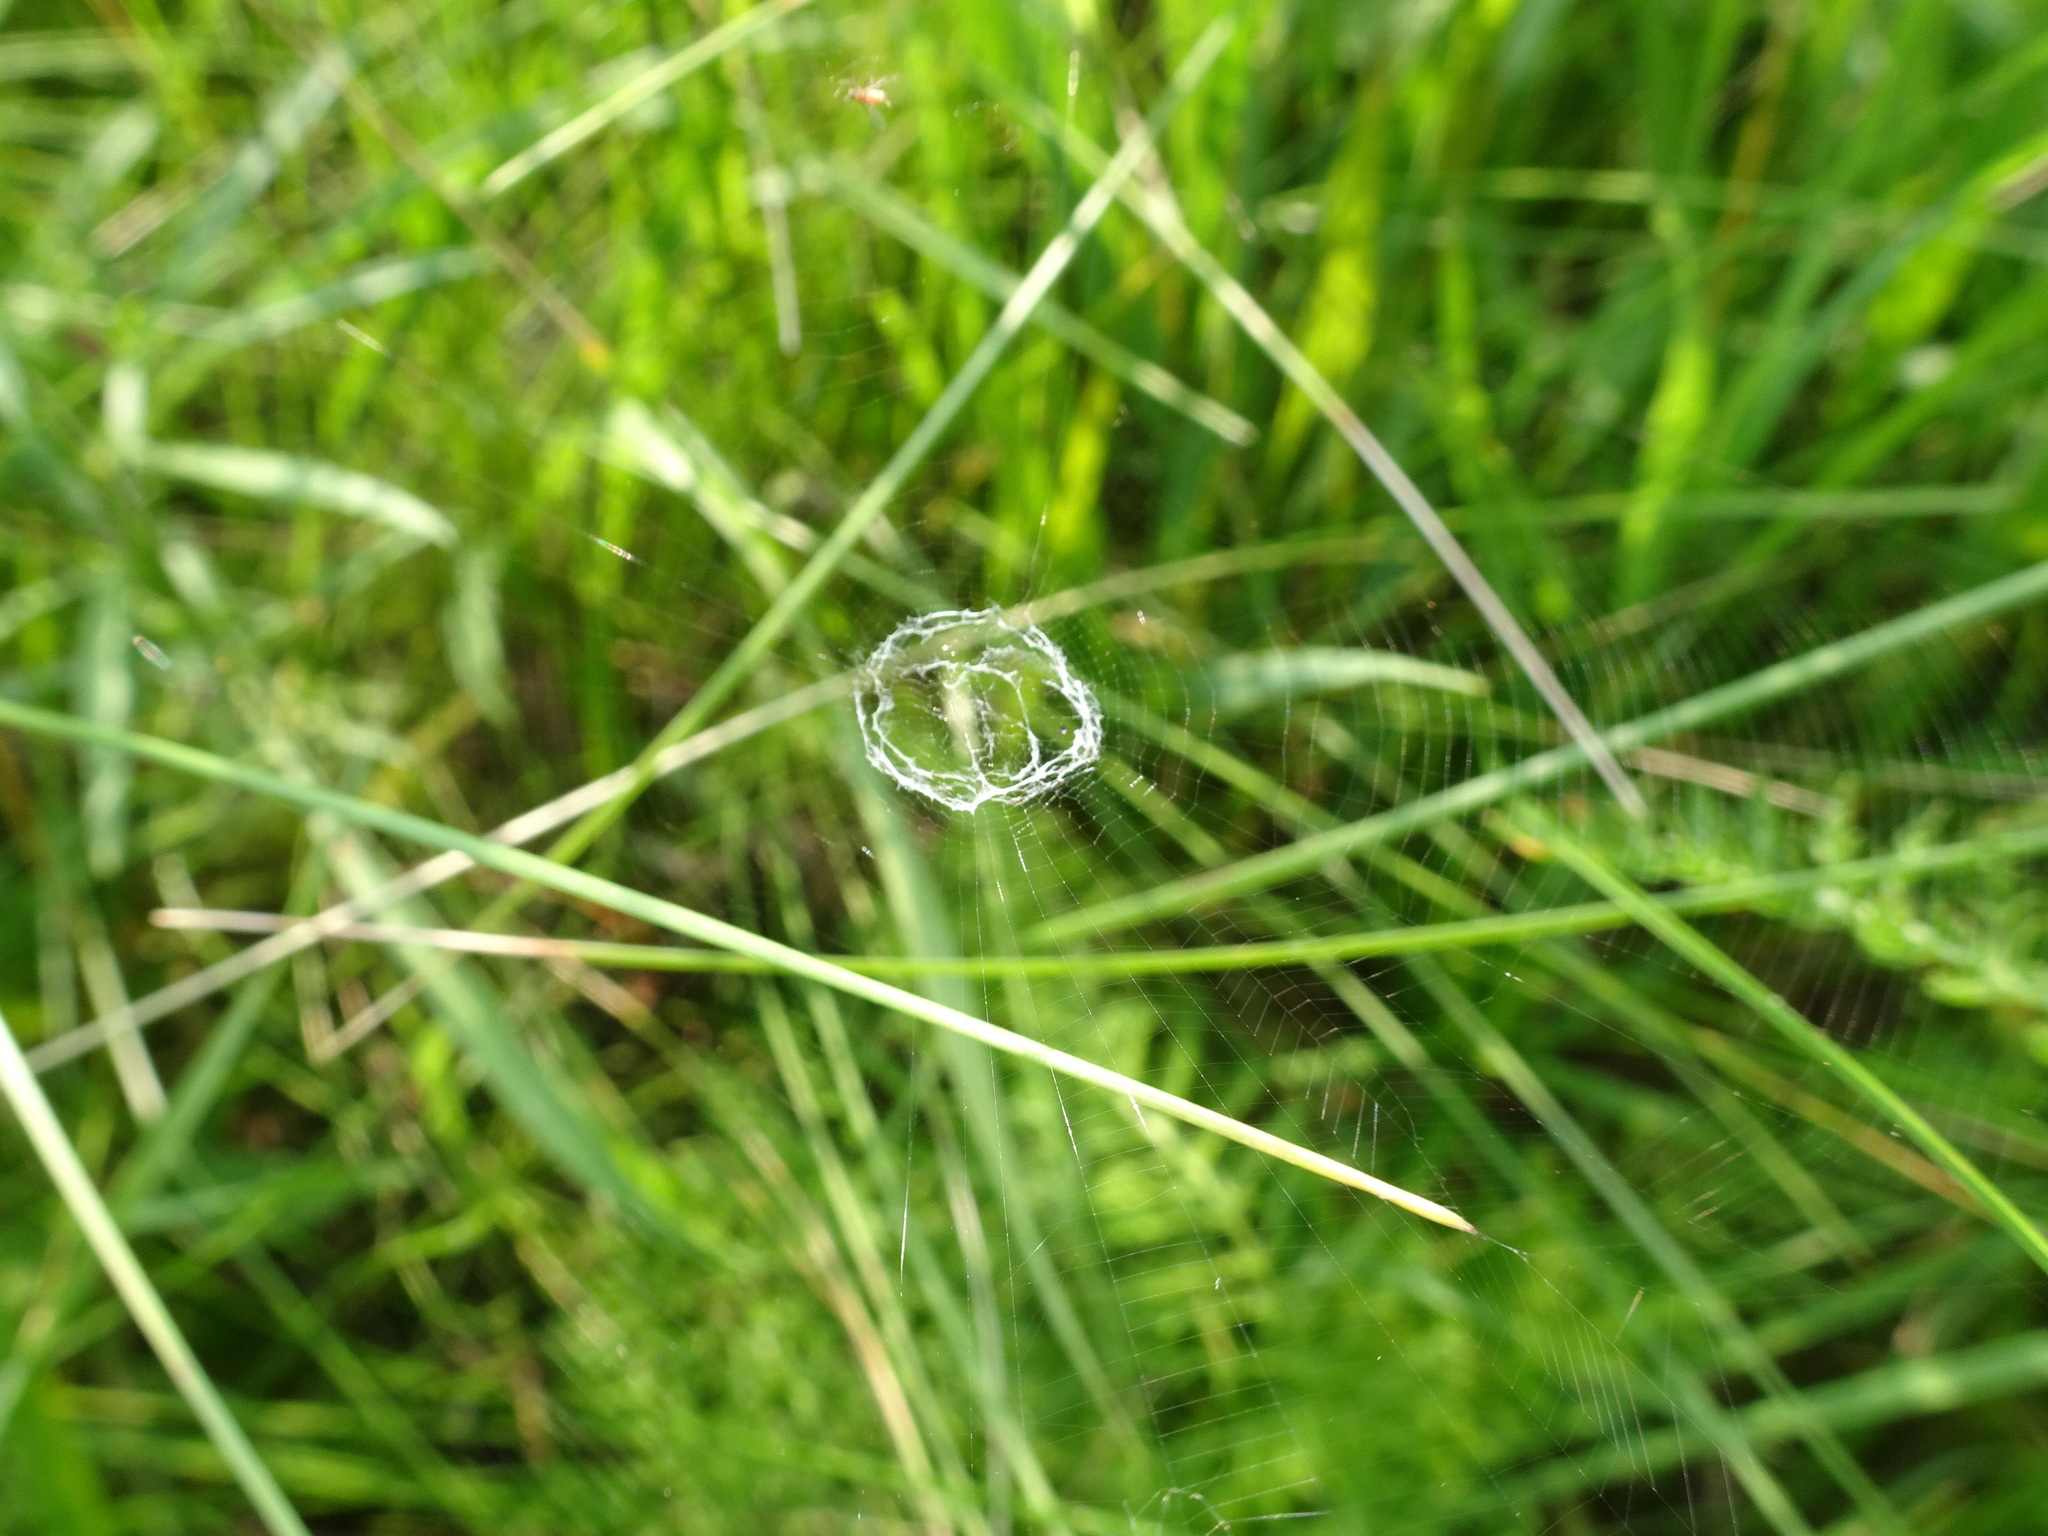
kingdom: Animalia
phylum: Arthropoda
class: Arachnida
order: Araneae
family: Araneidae
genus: Mangora
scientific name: Mangora gibberosa
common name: Lined orbweaver
